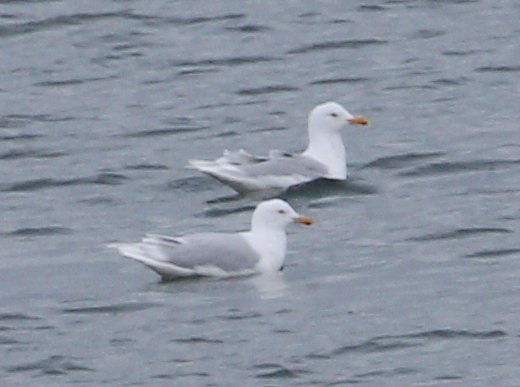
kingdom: Animalia
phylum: Chordata
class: Aves
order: Charadriiformes
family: Laridae
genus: Larus
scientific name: Larus hyperboreus
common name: Glaucous gull
